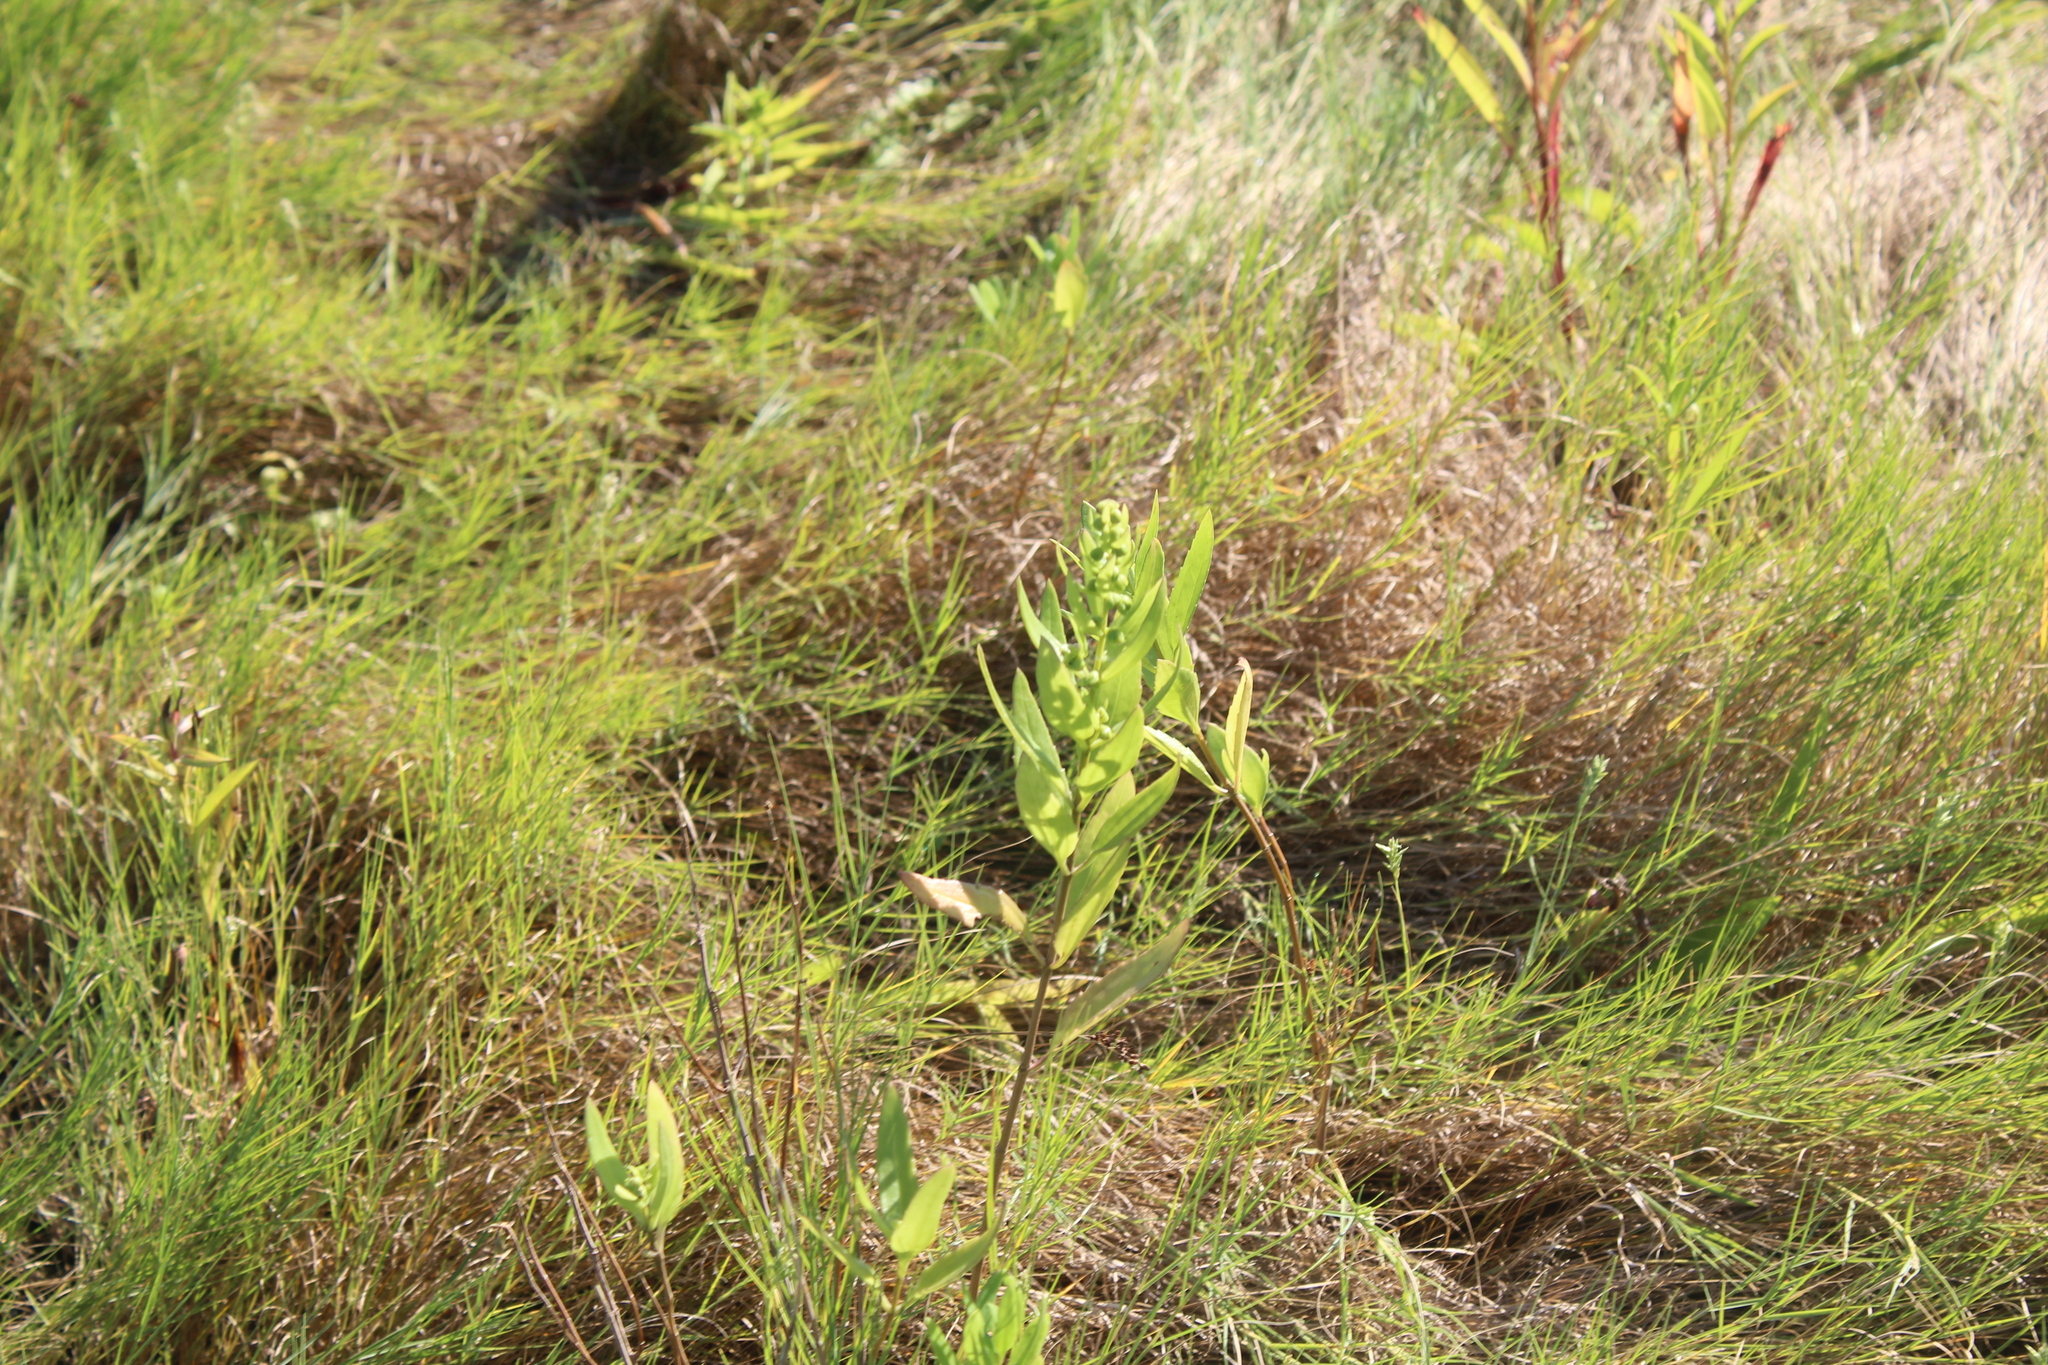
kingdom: Plantae
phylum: Tracheophyta
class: Magnoliopsida
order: Asterales
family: Asteraceae
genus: Iva
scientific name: Iva frutescens
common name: Big-leaved marsh-elder
